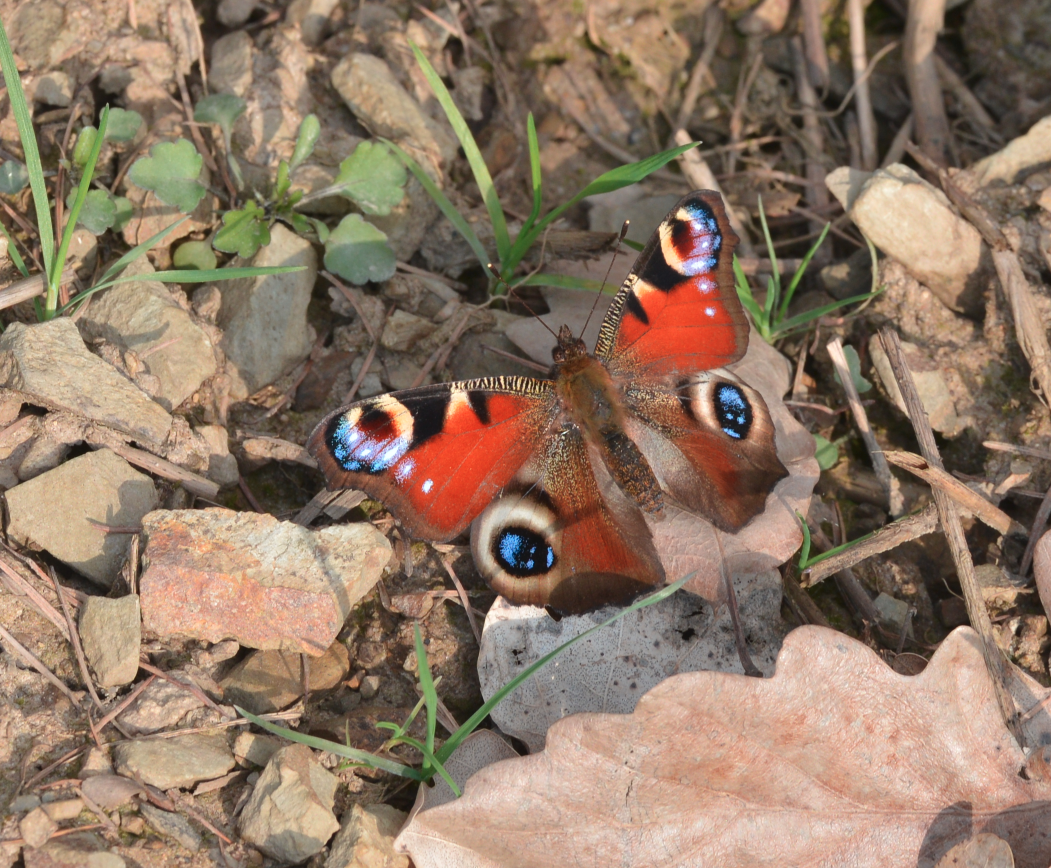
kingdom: Animalia
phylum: Arthropoda
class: Insecta
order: Lepidoptera
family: Nymphalidae
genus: Aglais
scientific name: Aglais io
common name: Peacock
